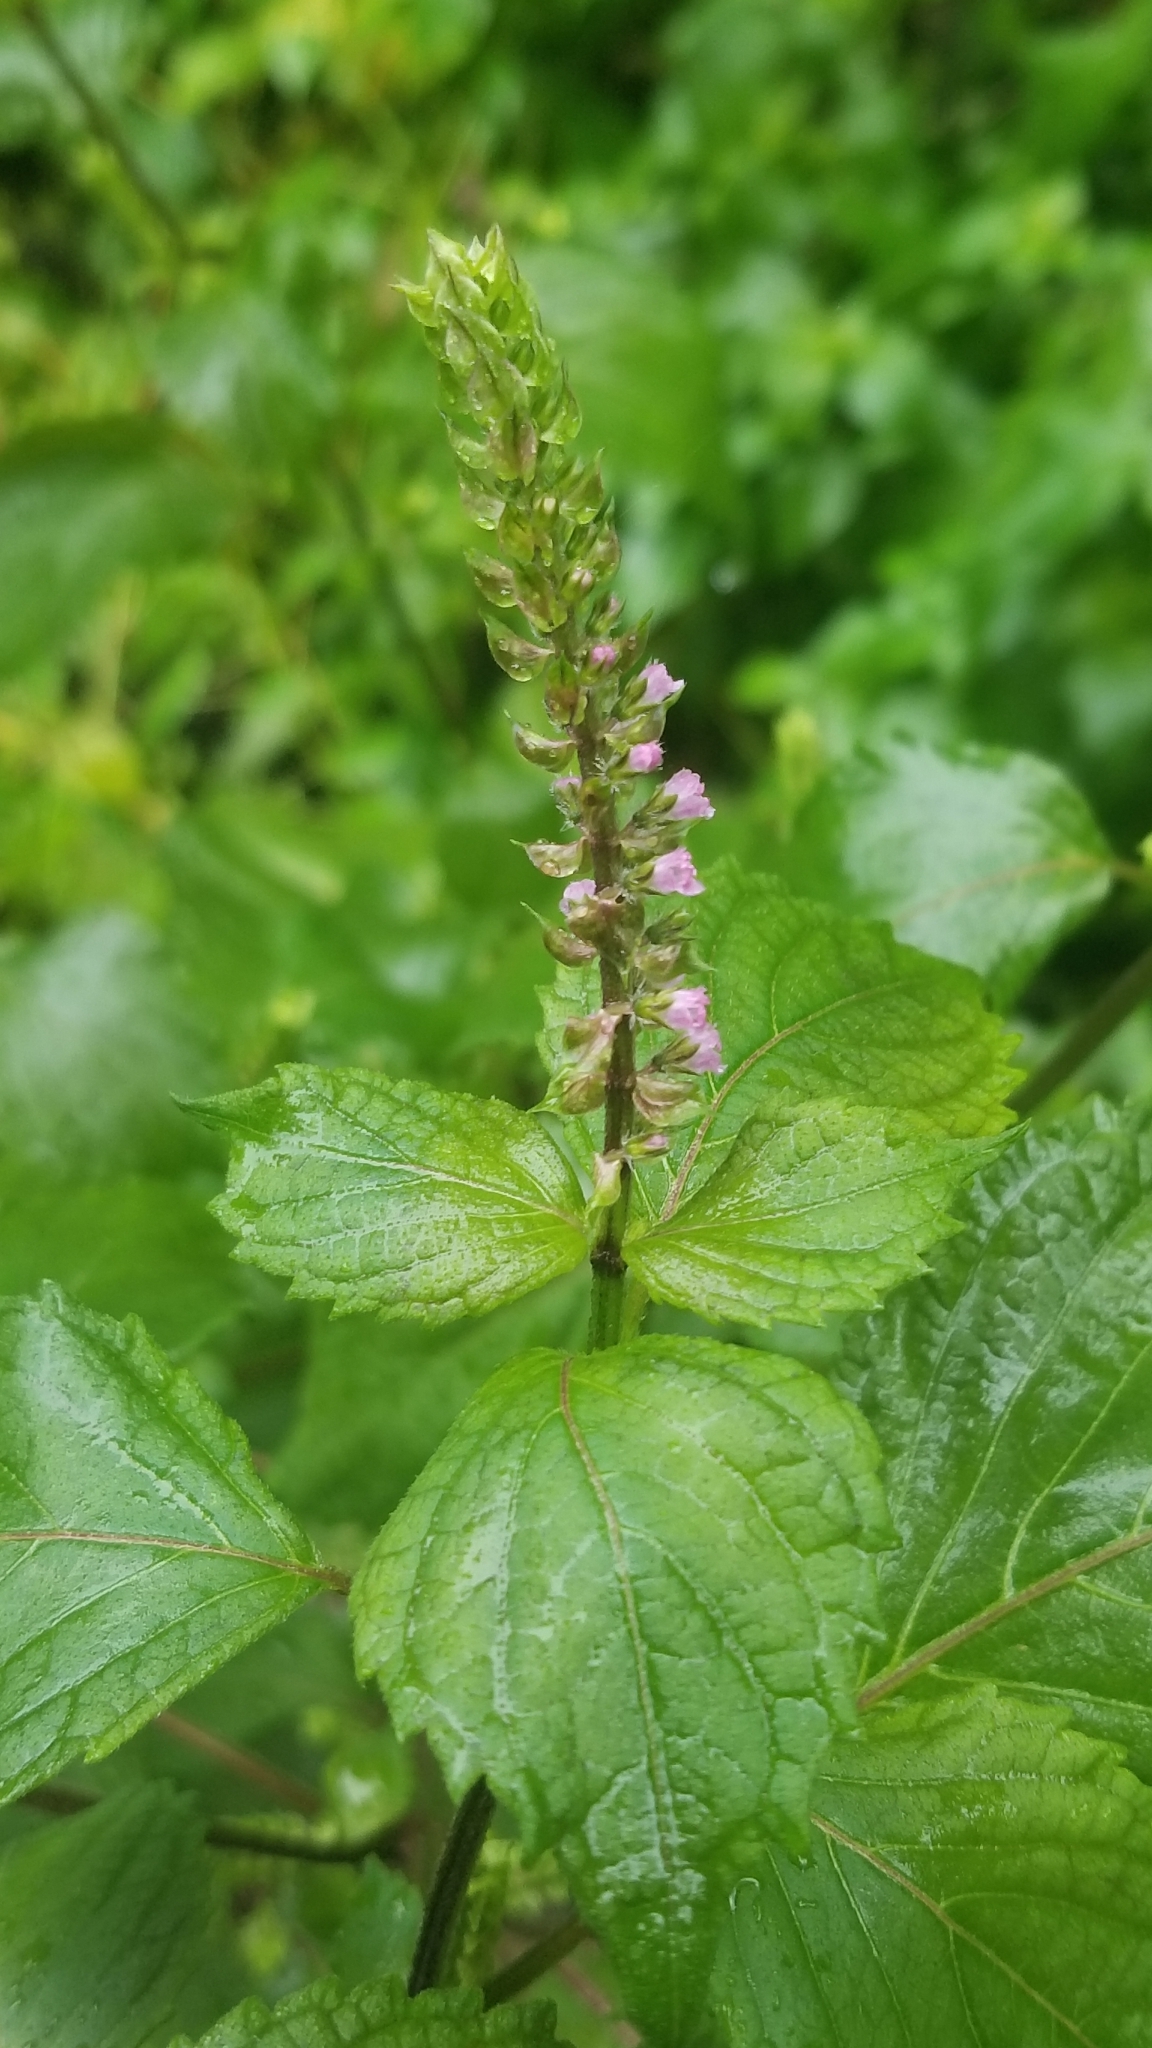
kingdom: Plantae
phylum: Tracheophyta
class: Magnoliopsida
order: Lamiales
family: Lamiaceae
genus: Perilla
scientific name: Perilla frutescens
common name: Perilla
